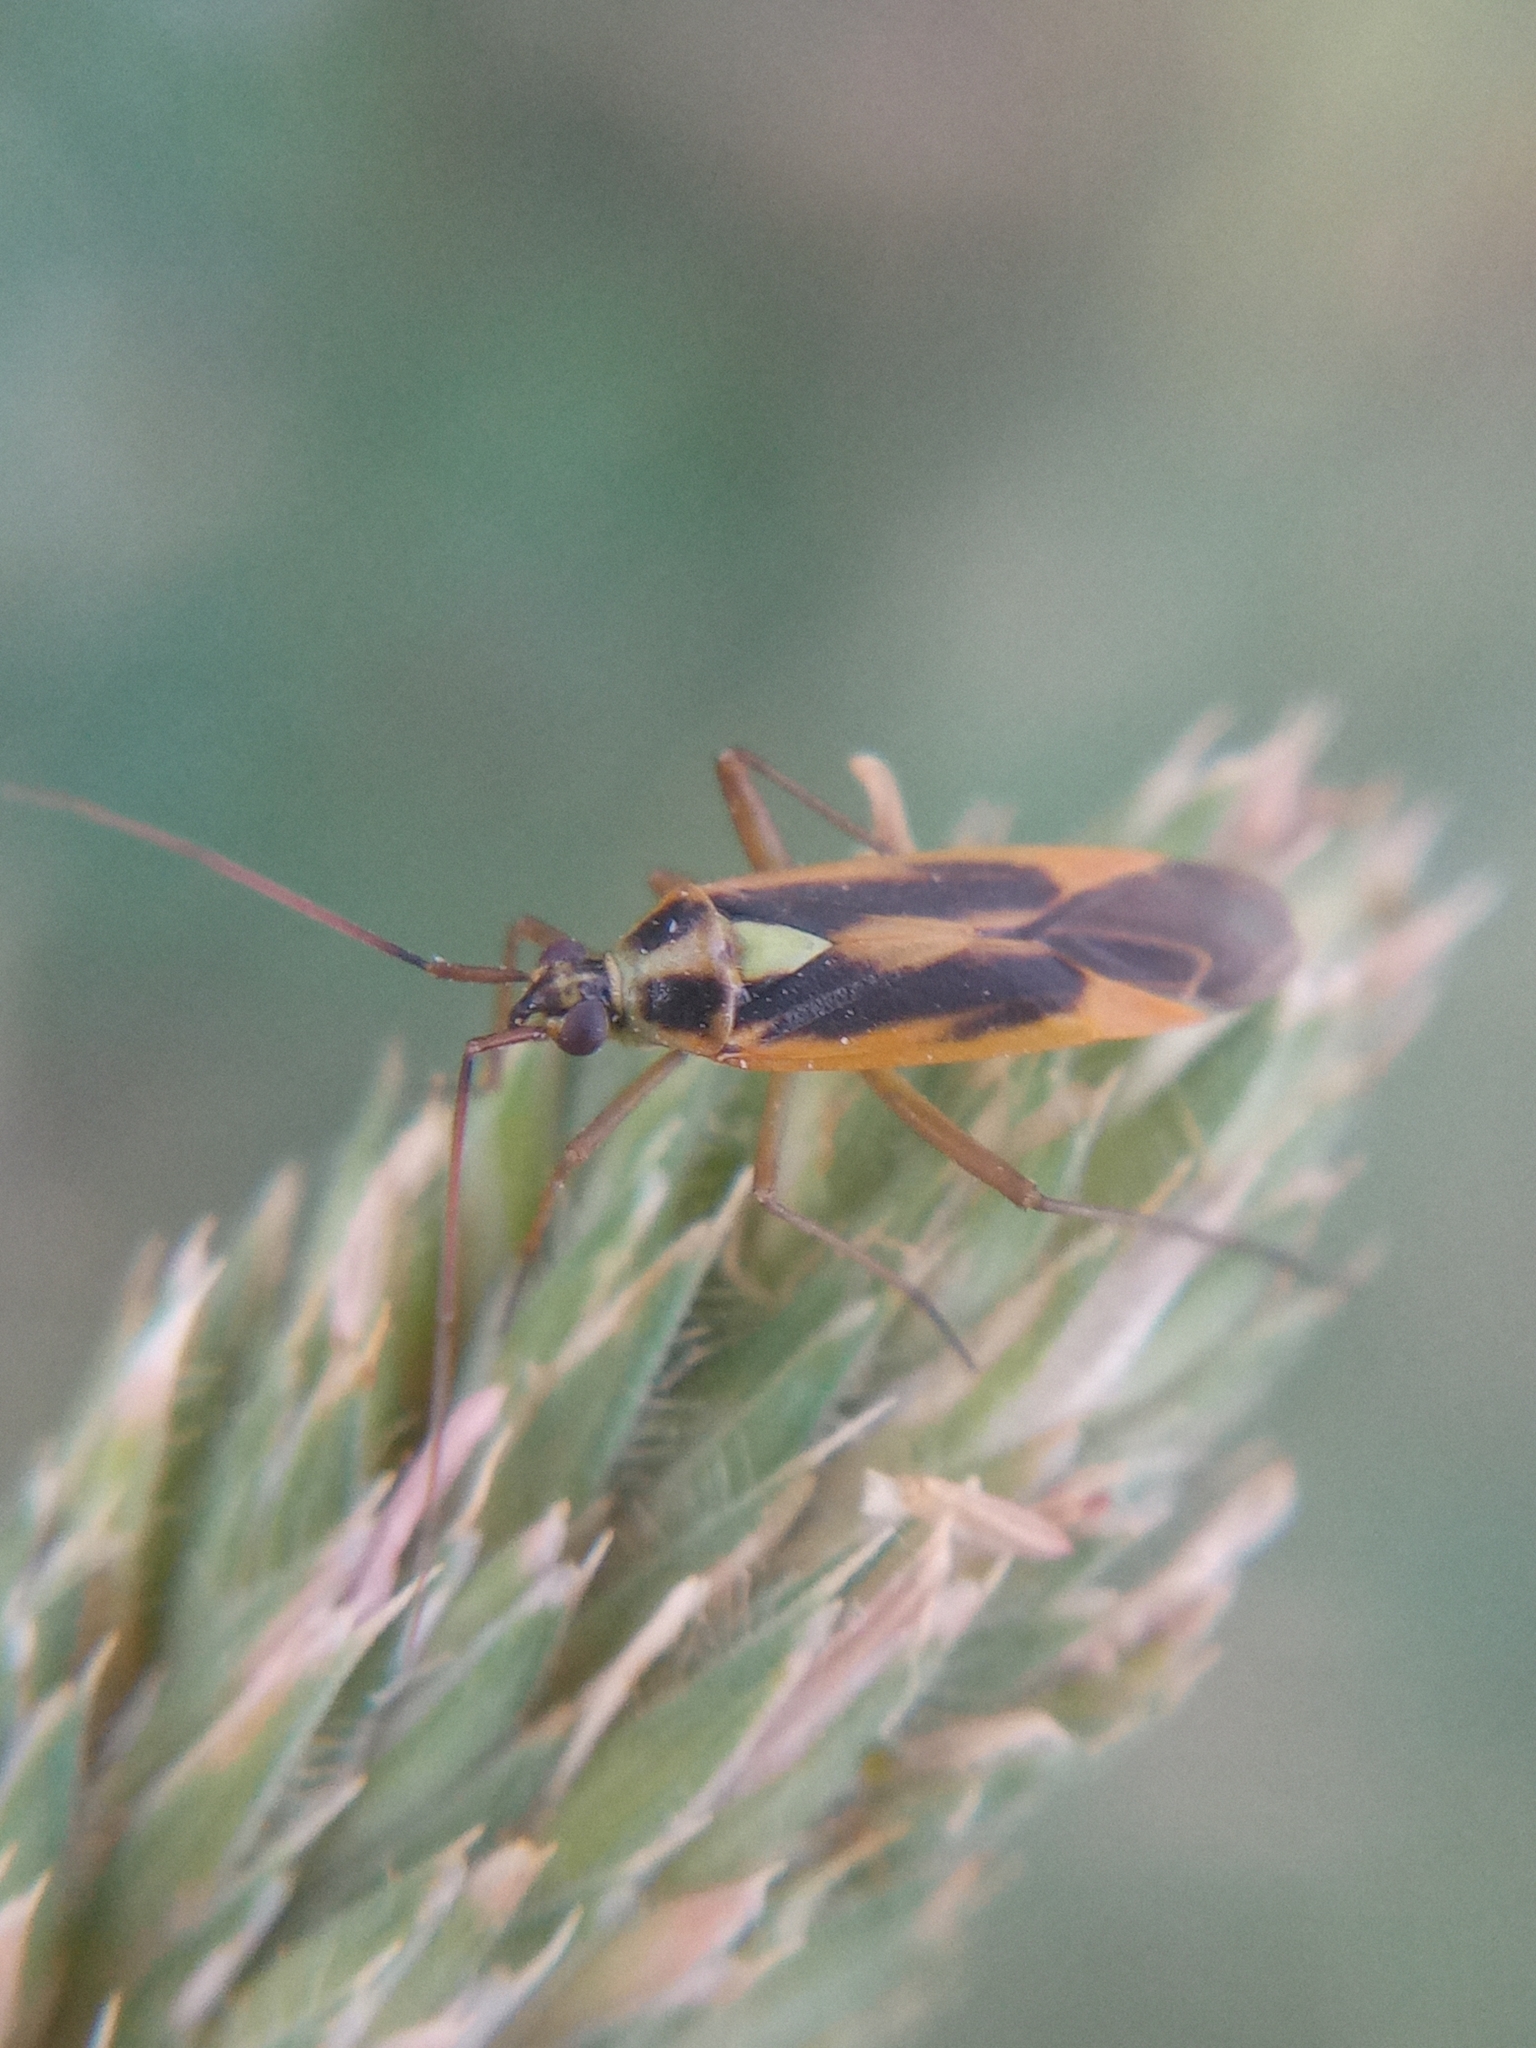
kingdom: Animalia
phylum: Arthropoda
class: Insecta
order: Hemiptera
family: Miridae
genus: Stenotus
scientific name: Stenotus binotatus
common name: Plant bug
